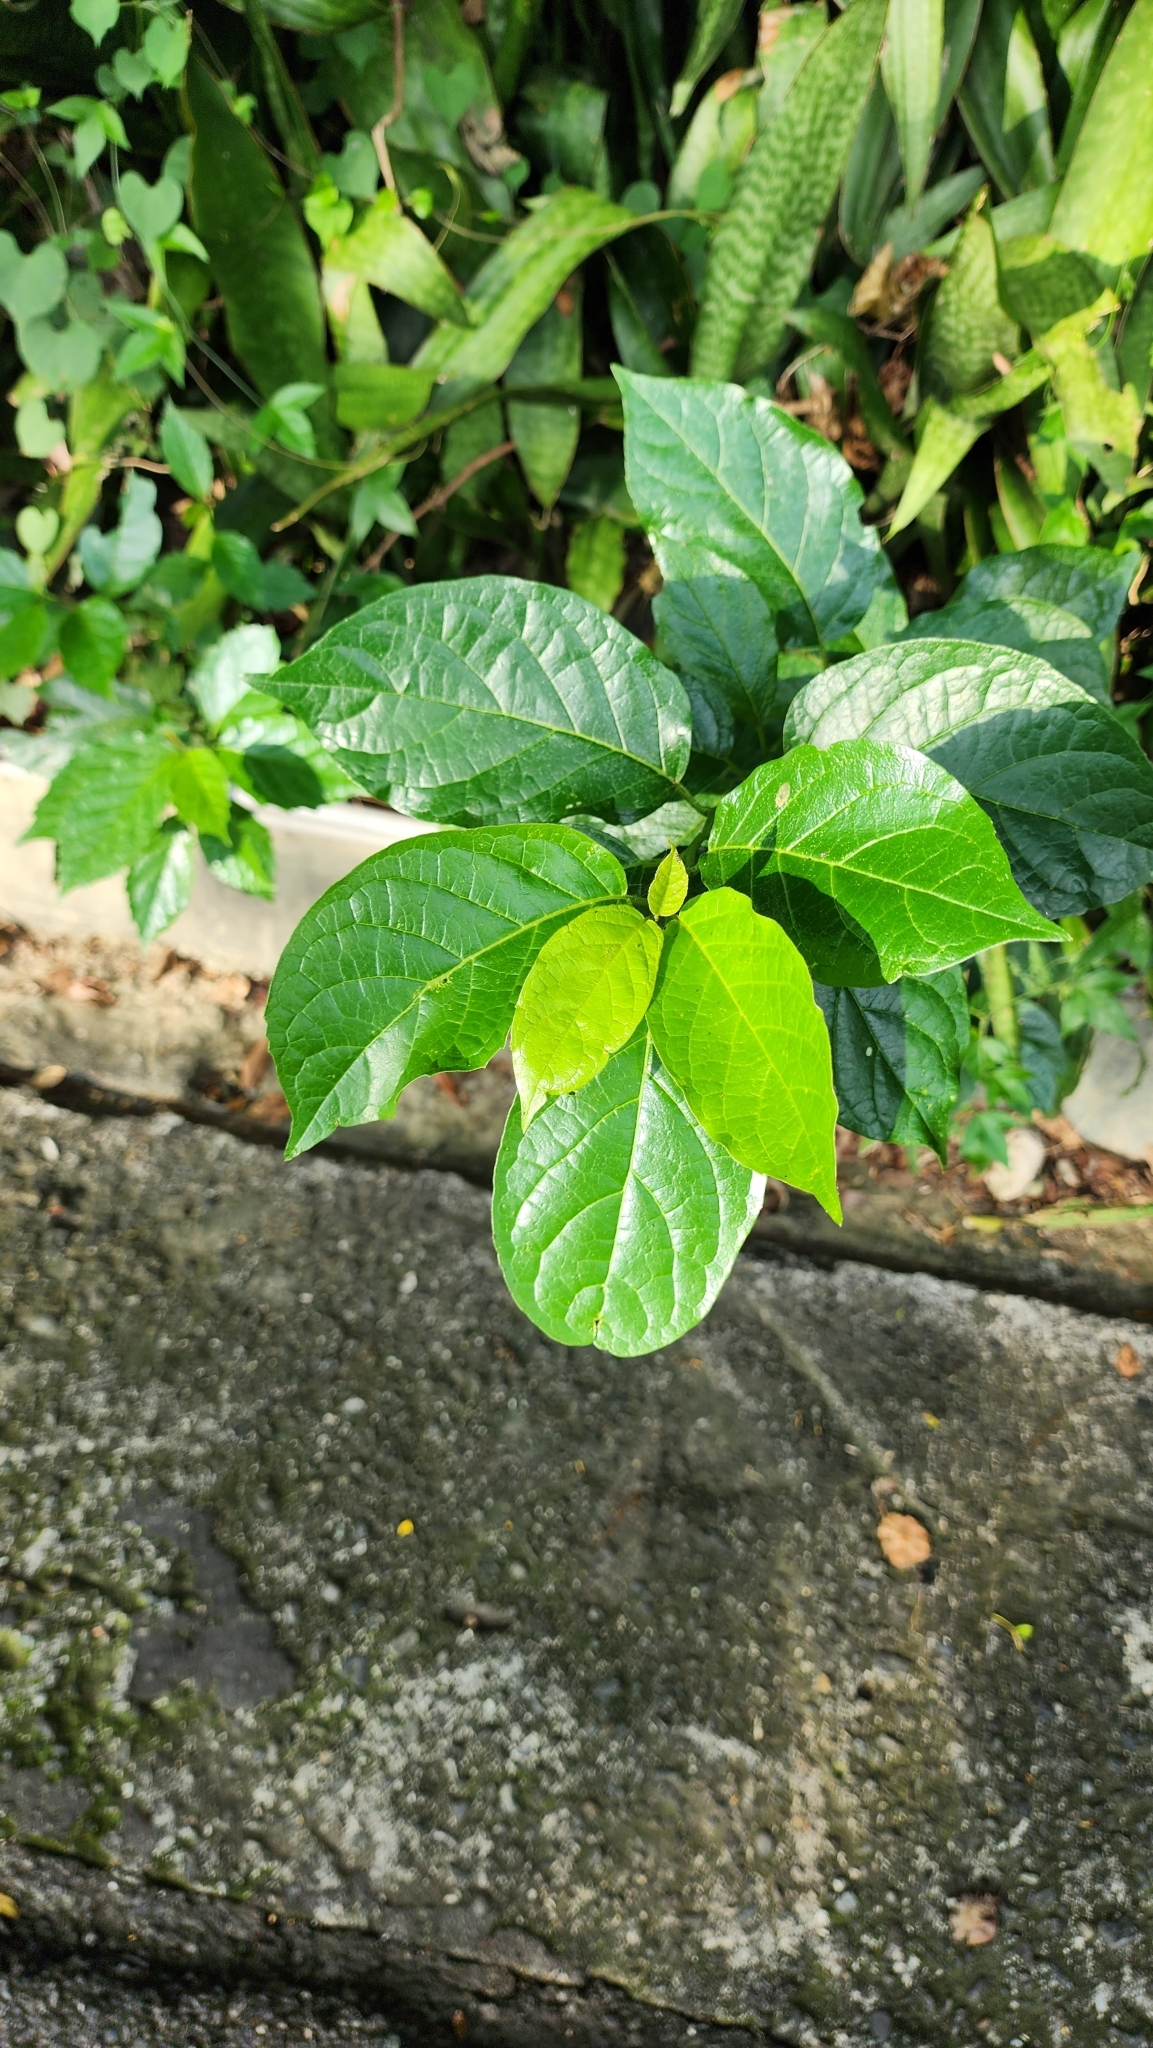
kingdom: Plantae
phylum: Tracheophyta
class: Magnoliopsida
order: Boraginales
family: Ehretiaceae
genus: Ehretia
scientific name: Ehretia resinosa
